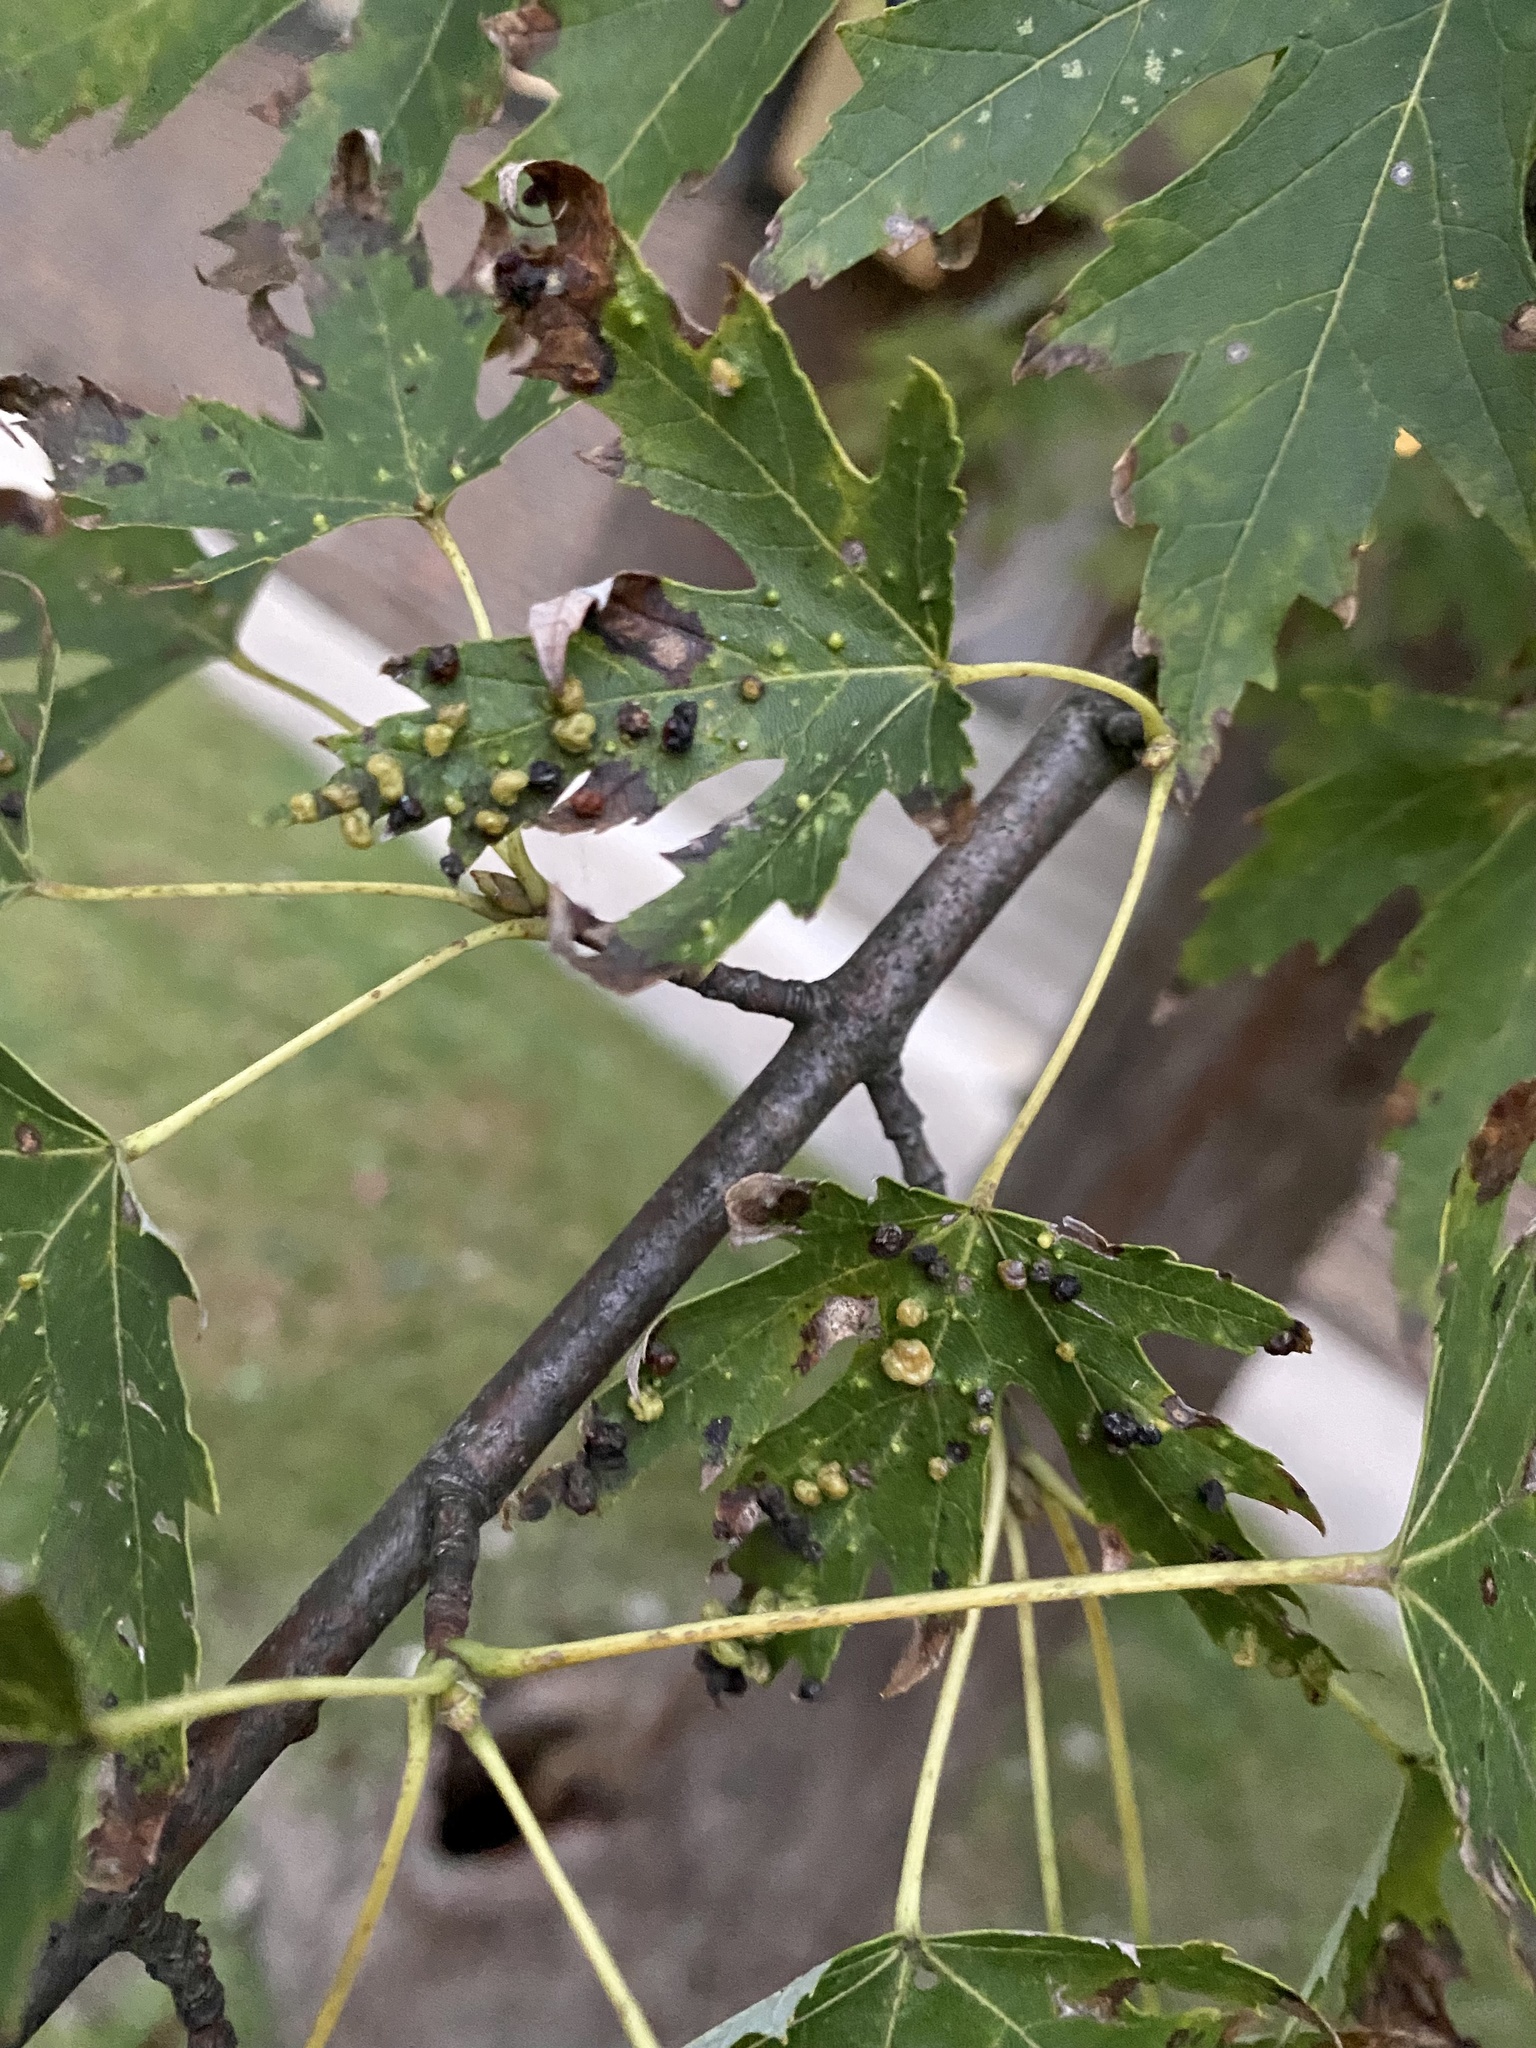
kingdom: Animalia
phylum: Arthropoda
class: Arachnida
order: Trombidiformes
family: Eriophyidae
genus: Vasates
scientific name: Vasates quadripedes
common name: Maple bladder gall mite
